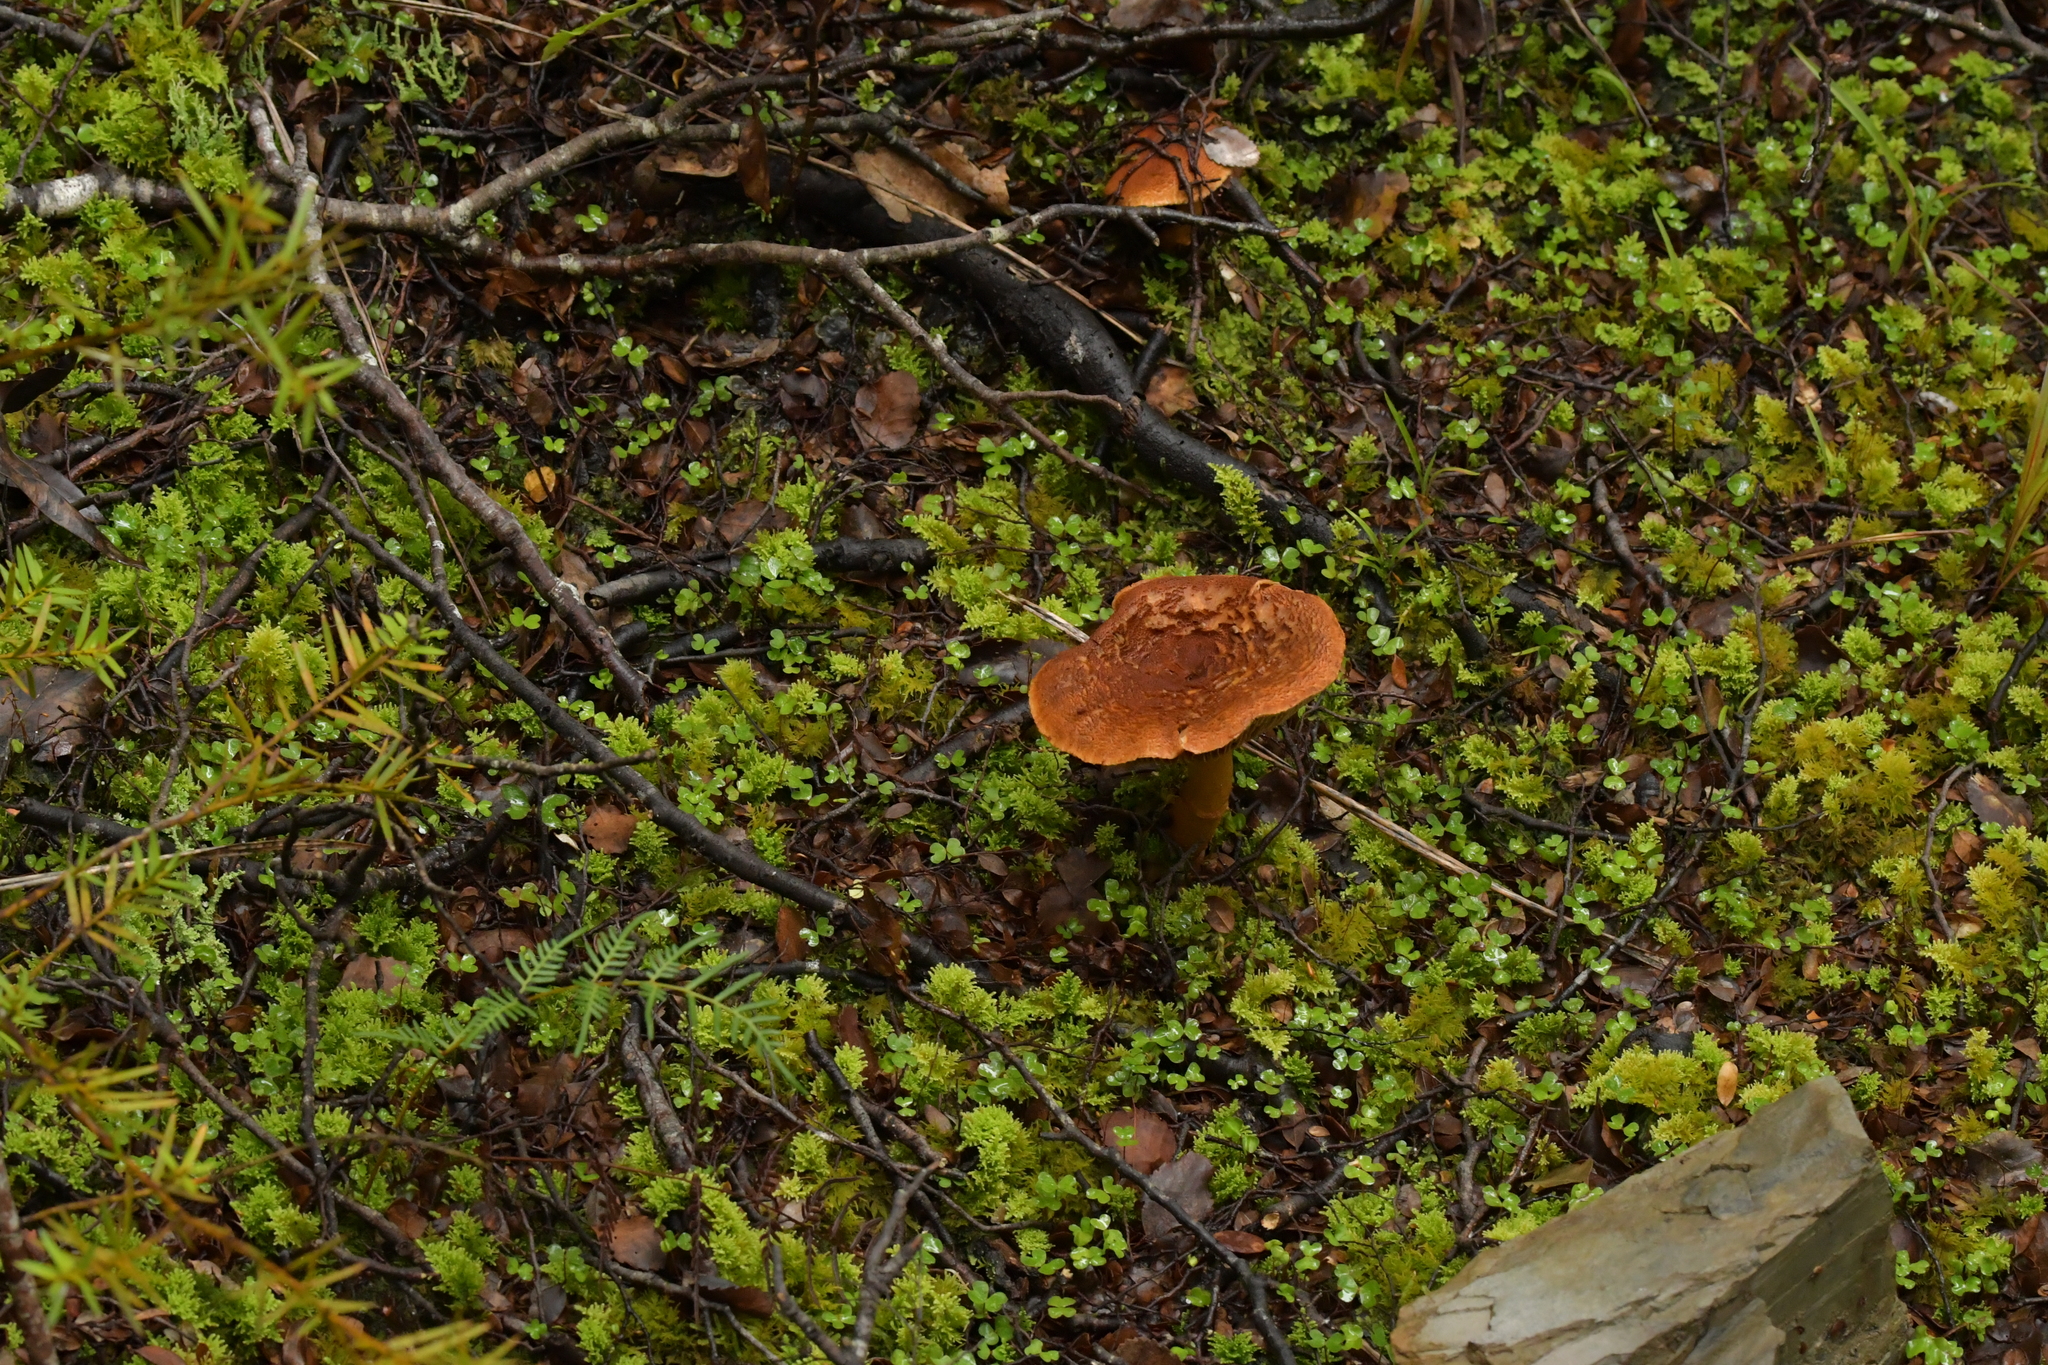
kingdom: Fungi
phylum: Basidiomycota
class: Agaricomycetes
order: Agaricales
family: Cortinariaceae
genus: Thaxterogaster
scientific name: Thaxterogaster castoreus
